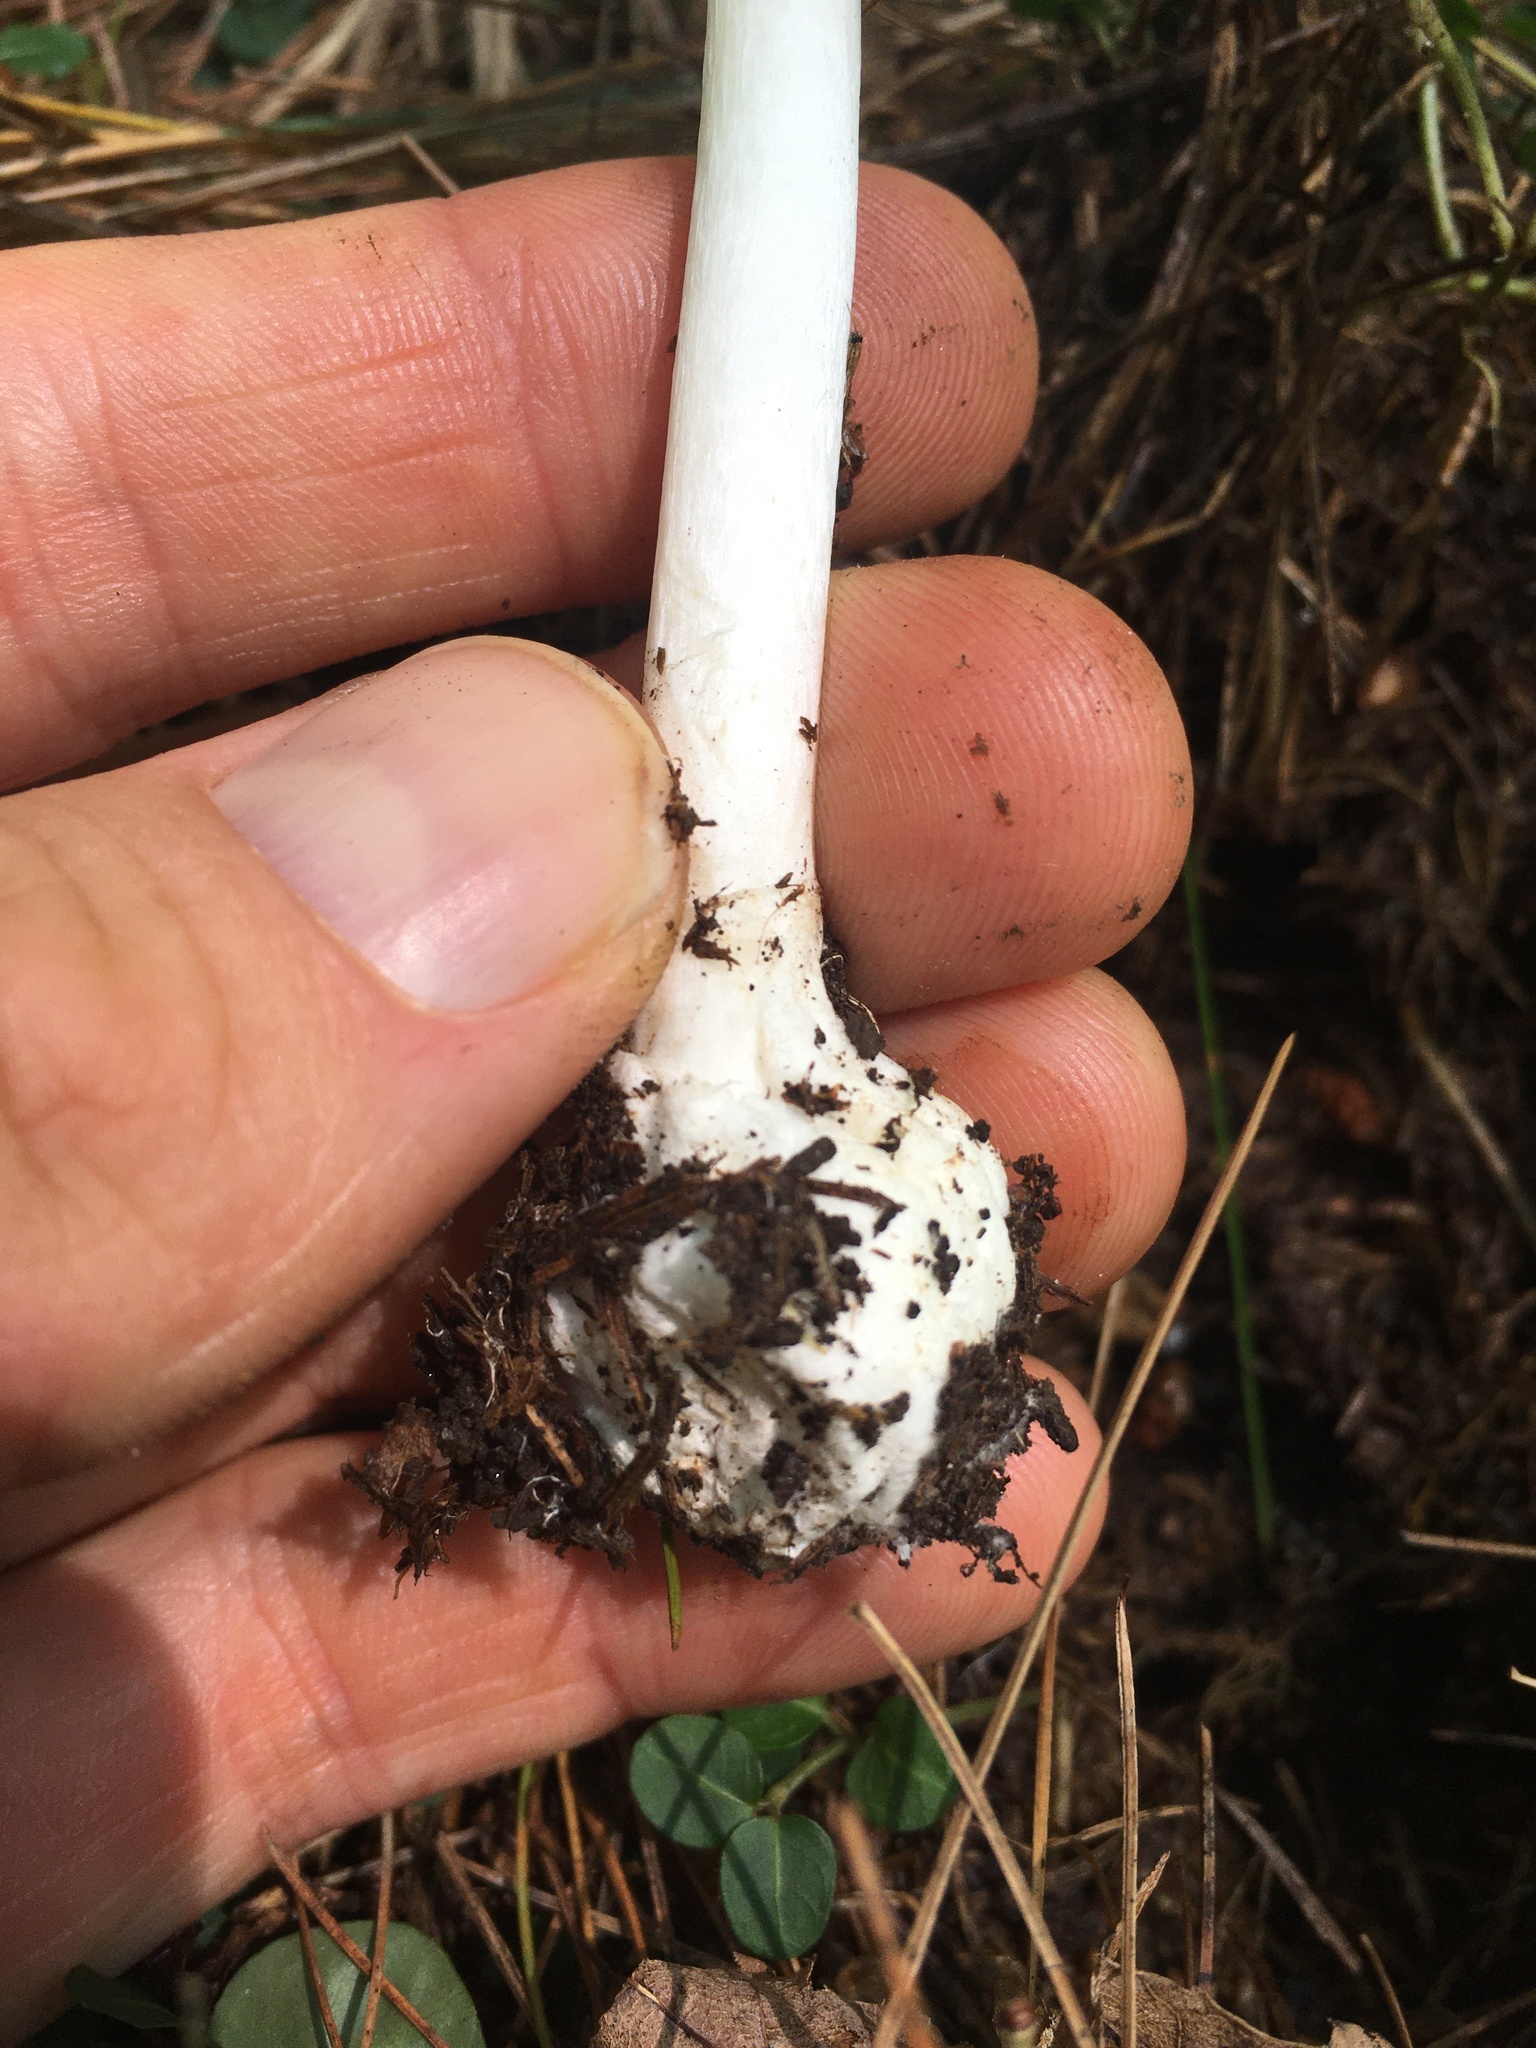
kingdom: Fungi
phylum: Basidiomycota
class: Agaricomycetes
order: Agaricales
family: Amanitaceae
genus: Amanita
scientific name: Amanita bisporigera
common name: Eastern north american destroying angel
